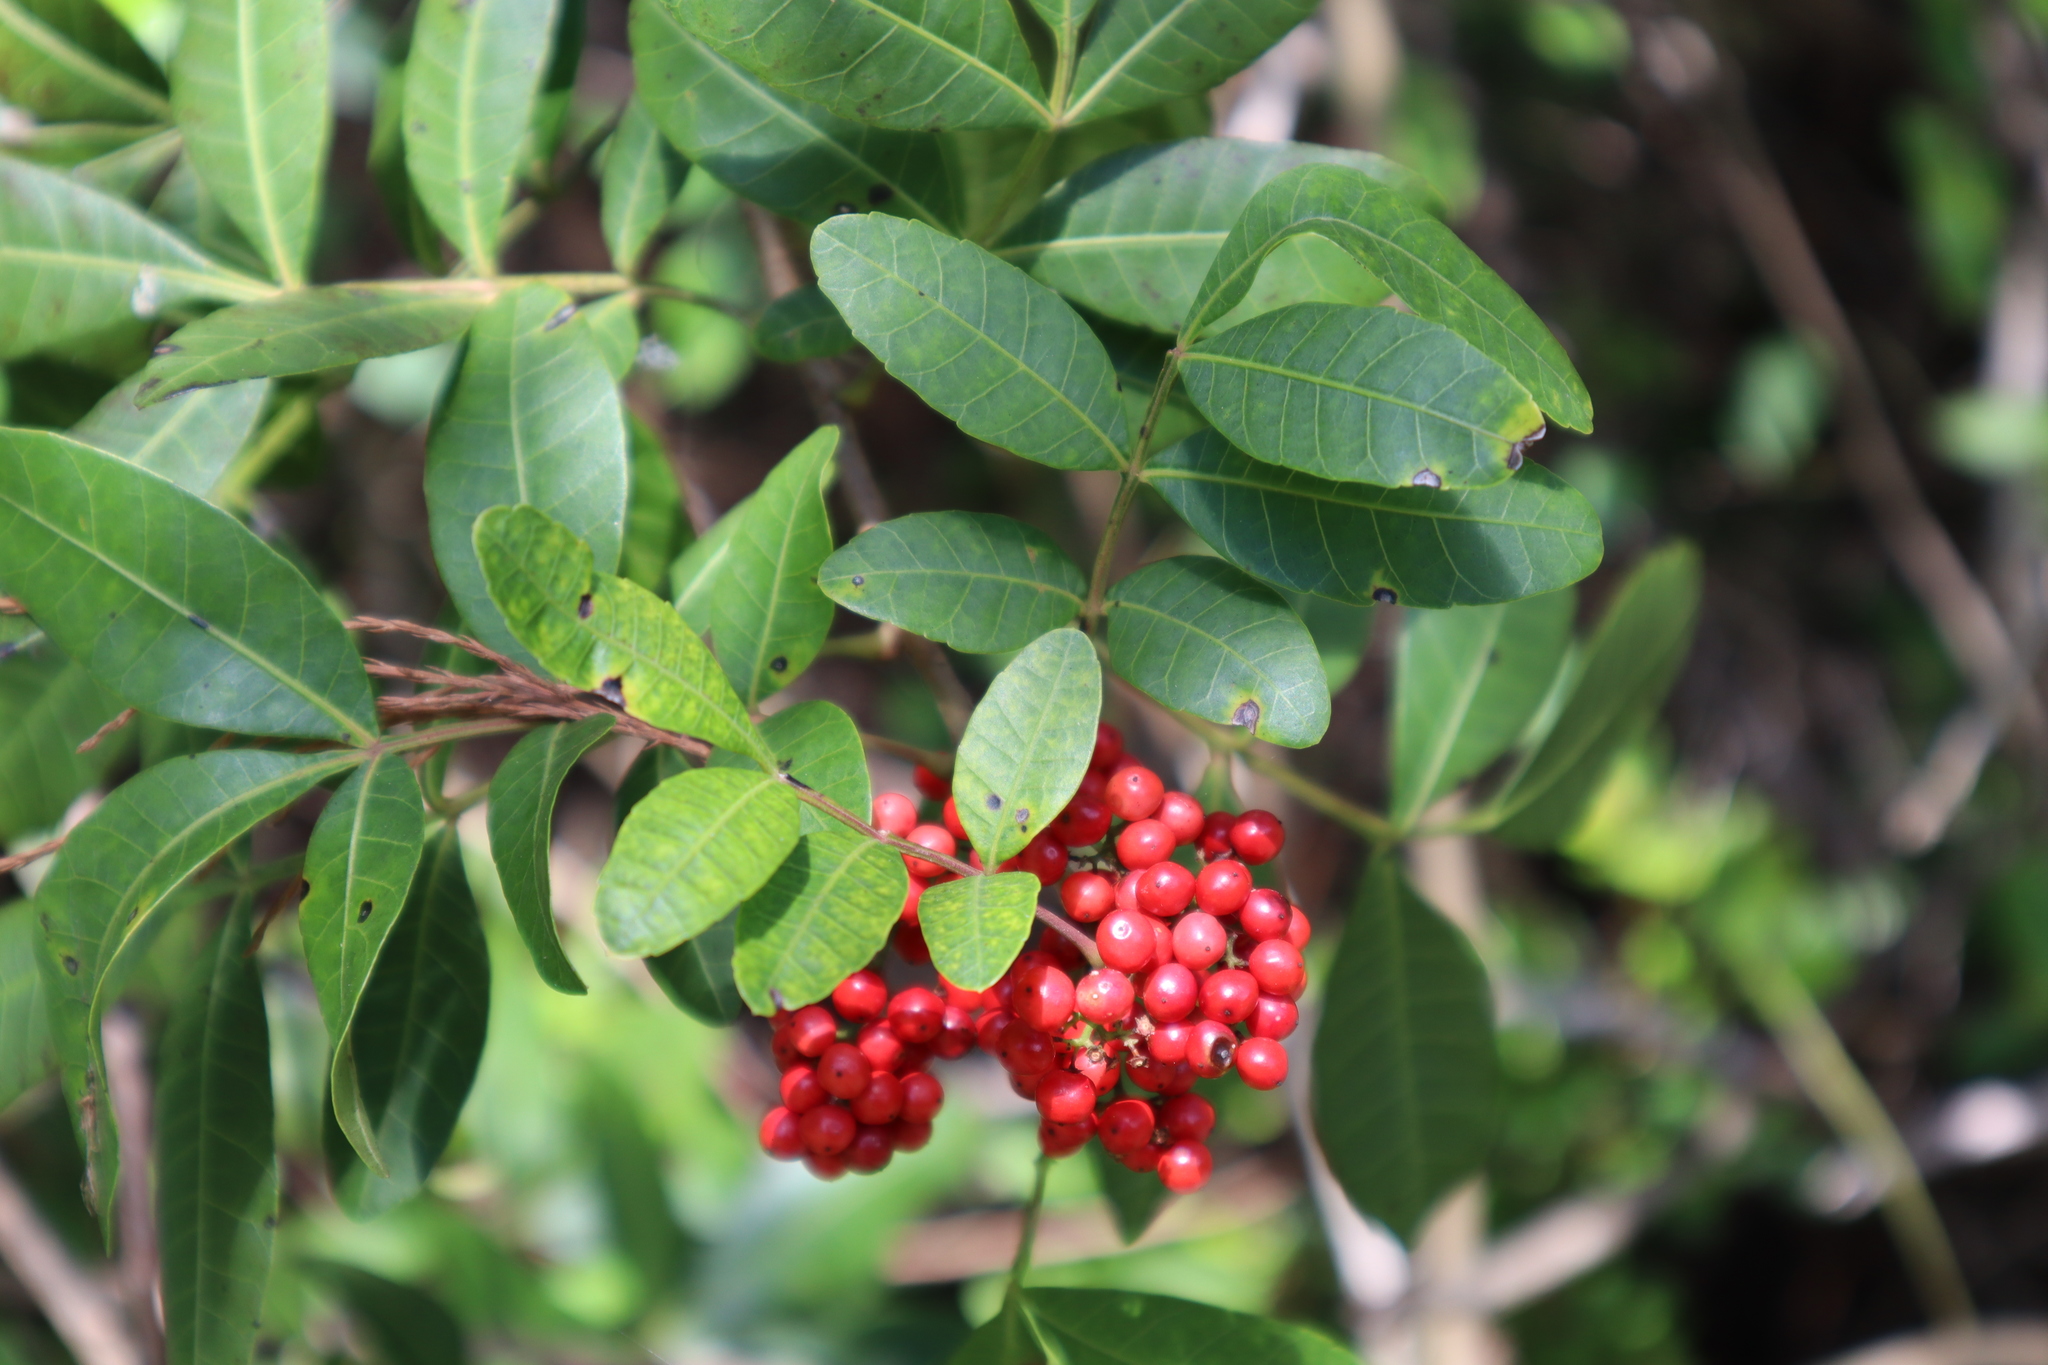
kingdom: Plantae
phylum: Tracheophyta
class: Magnoliopsida
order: Sapindales
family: Anacardiaceae
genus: Schinus
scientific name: Schinus terebinthifolia
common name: Brazilian peppertree
